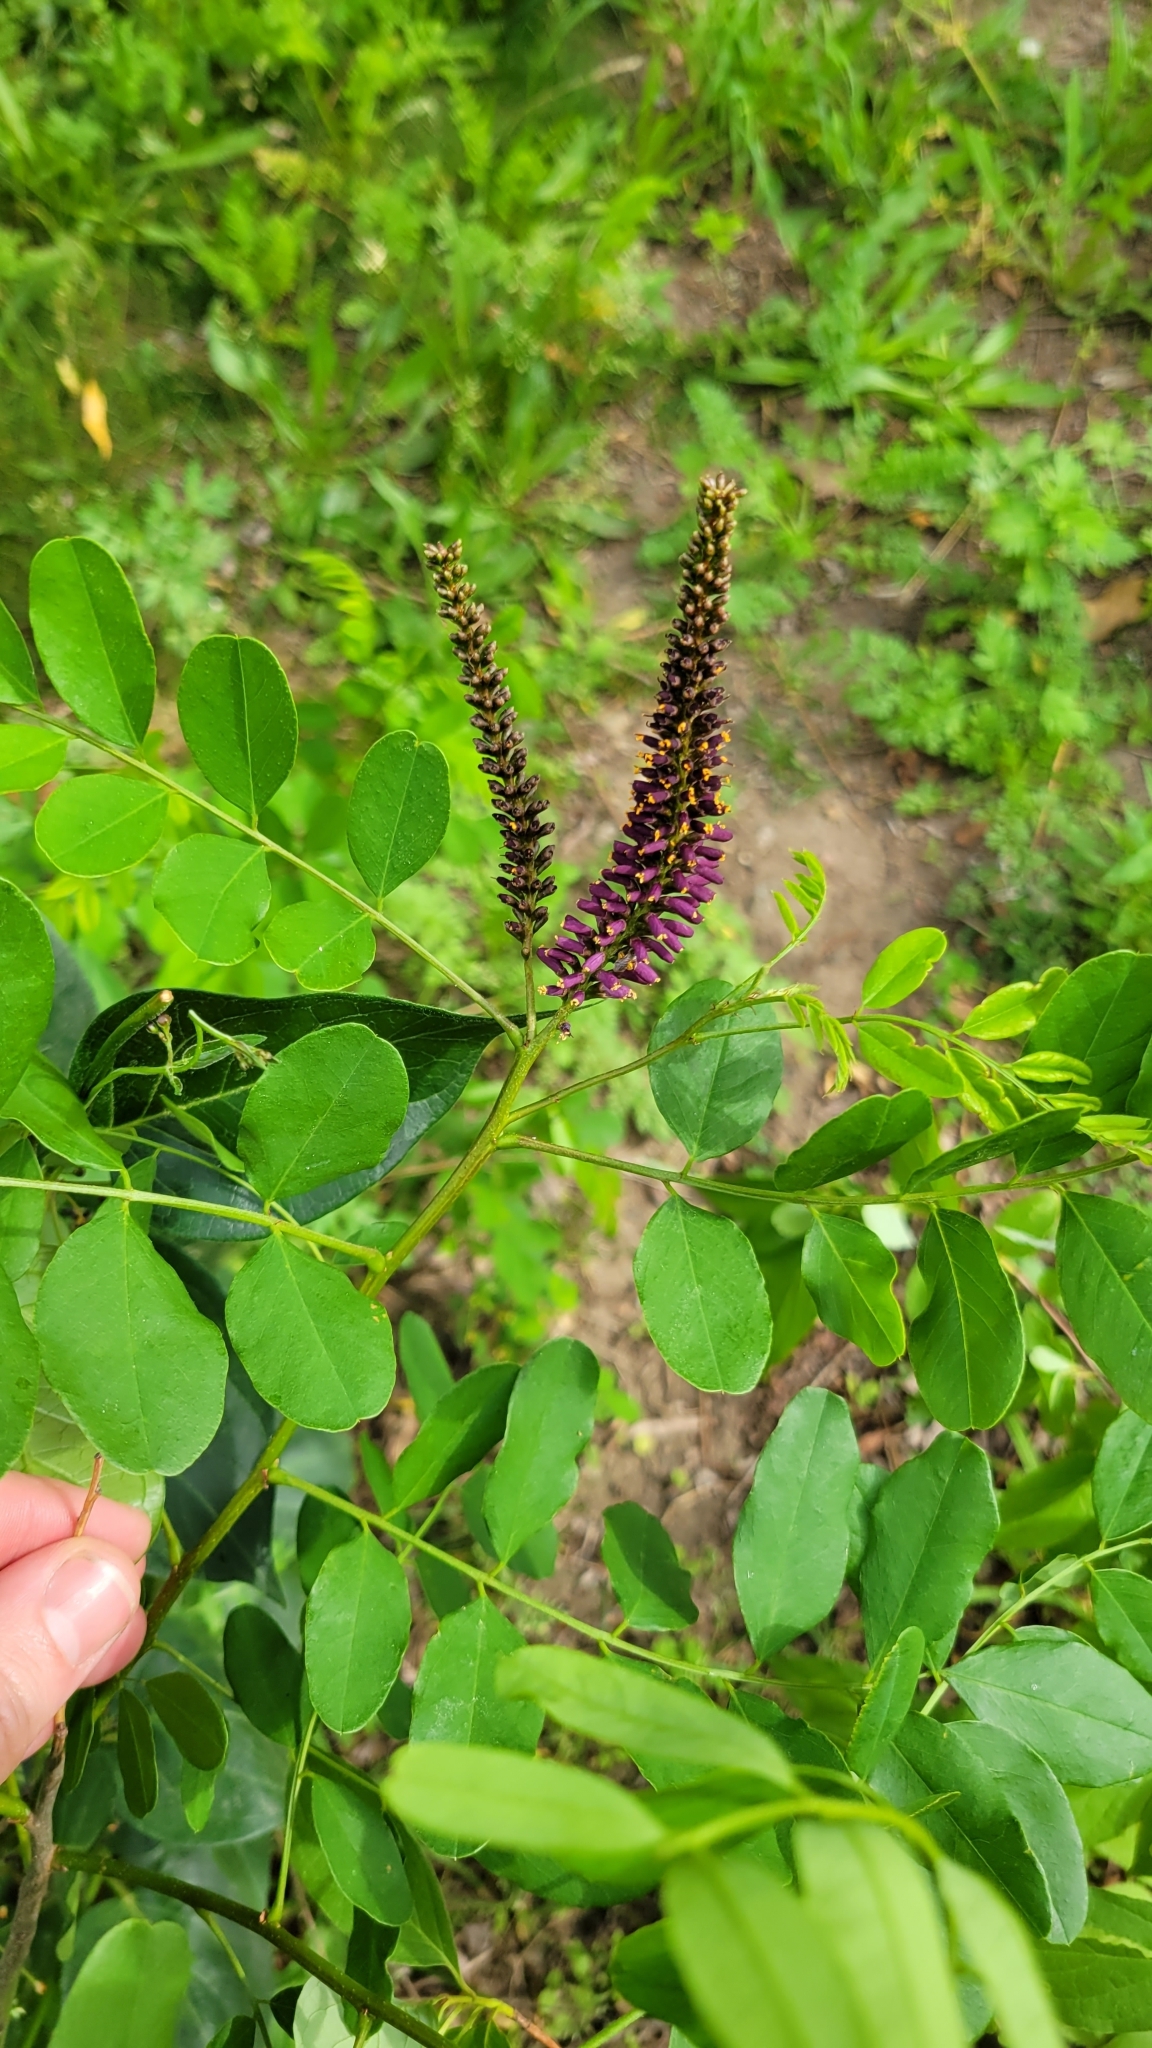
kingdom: Plantae
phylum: Tracheophyta
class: Magnoliopsida
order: Fabales
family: Fabaceae
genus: Amorpha
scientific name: Amorpha fruticosa
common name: False indigo
